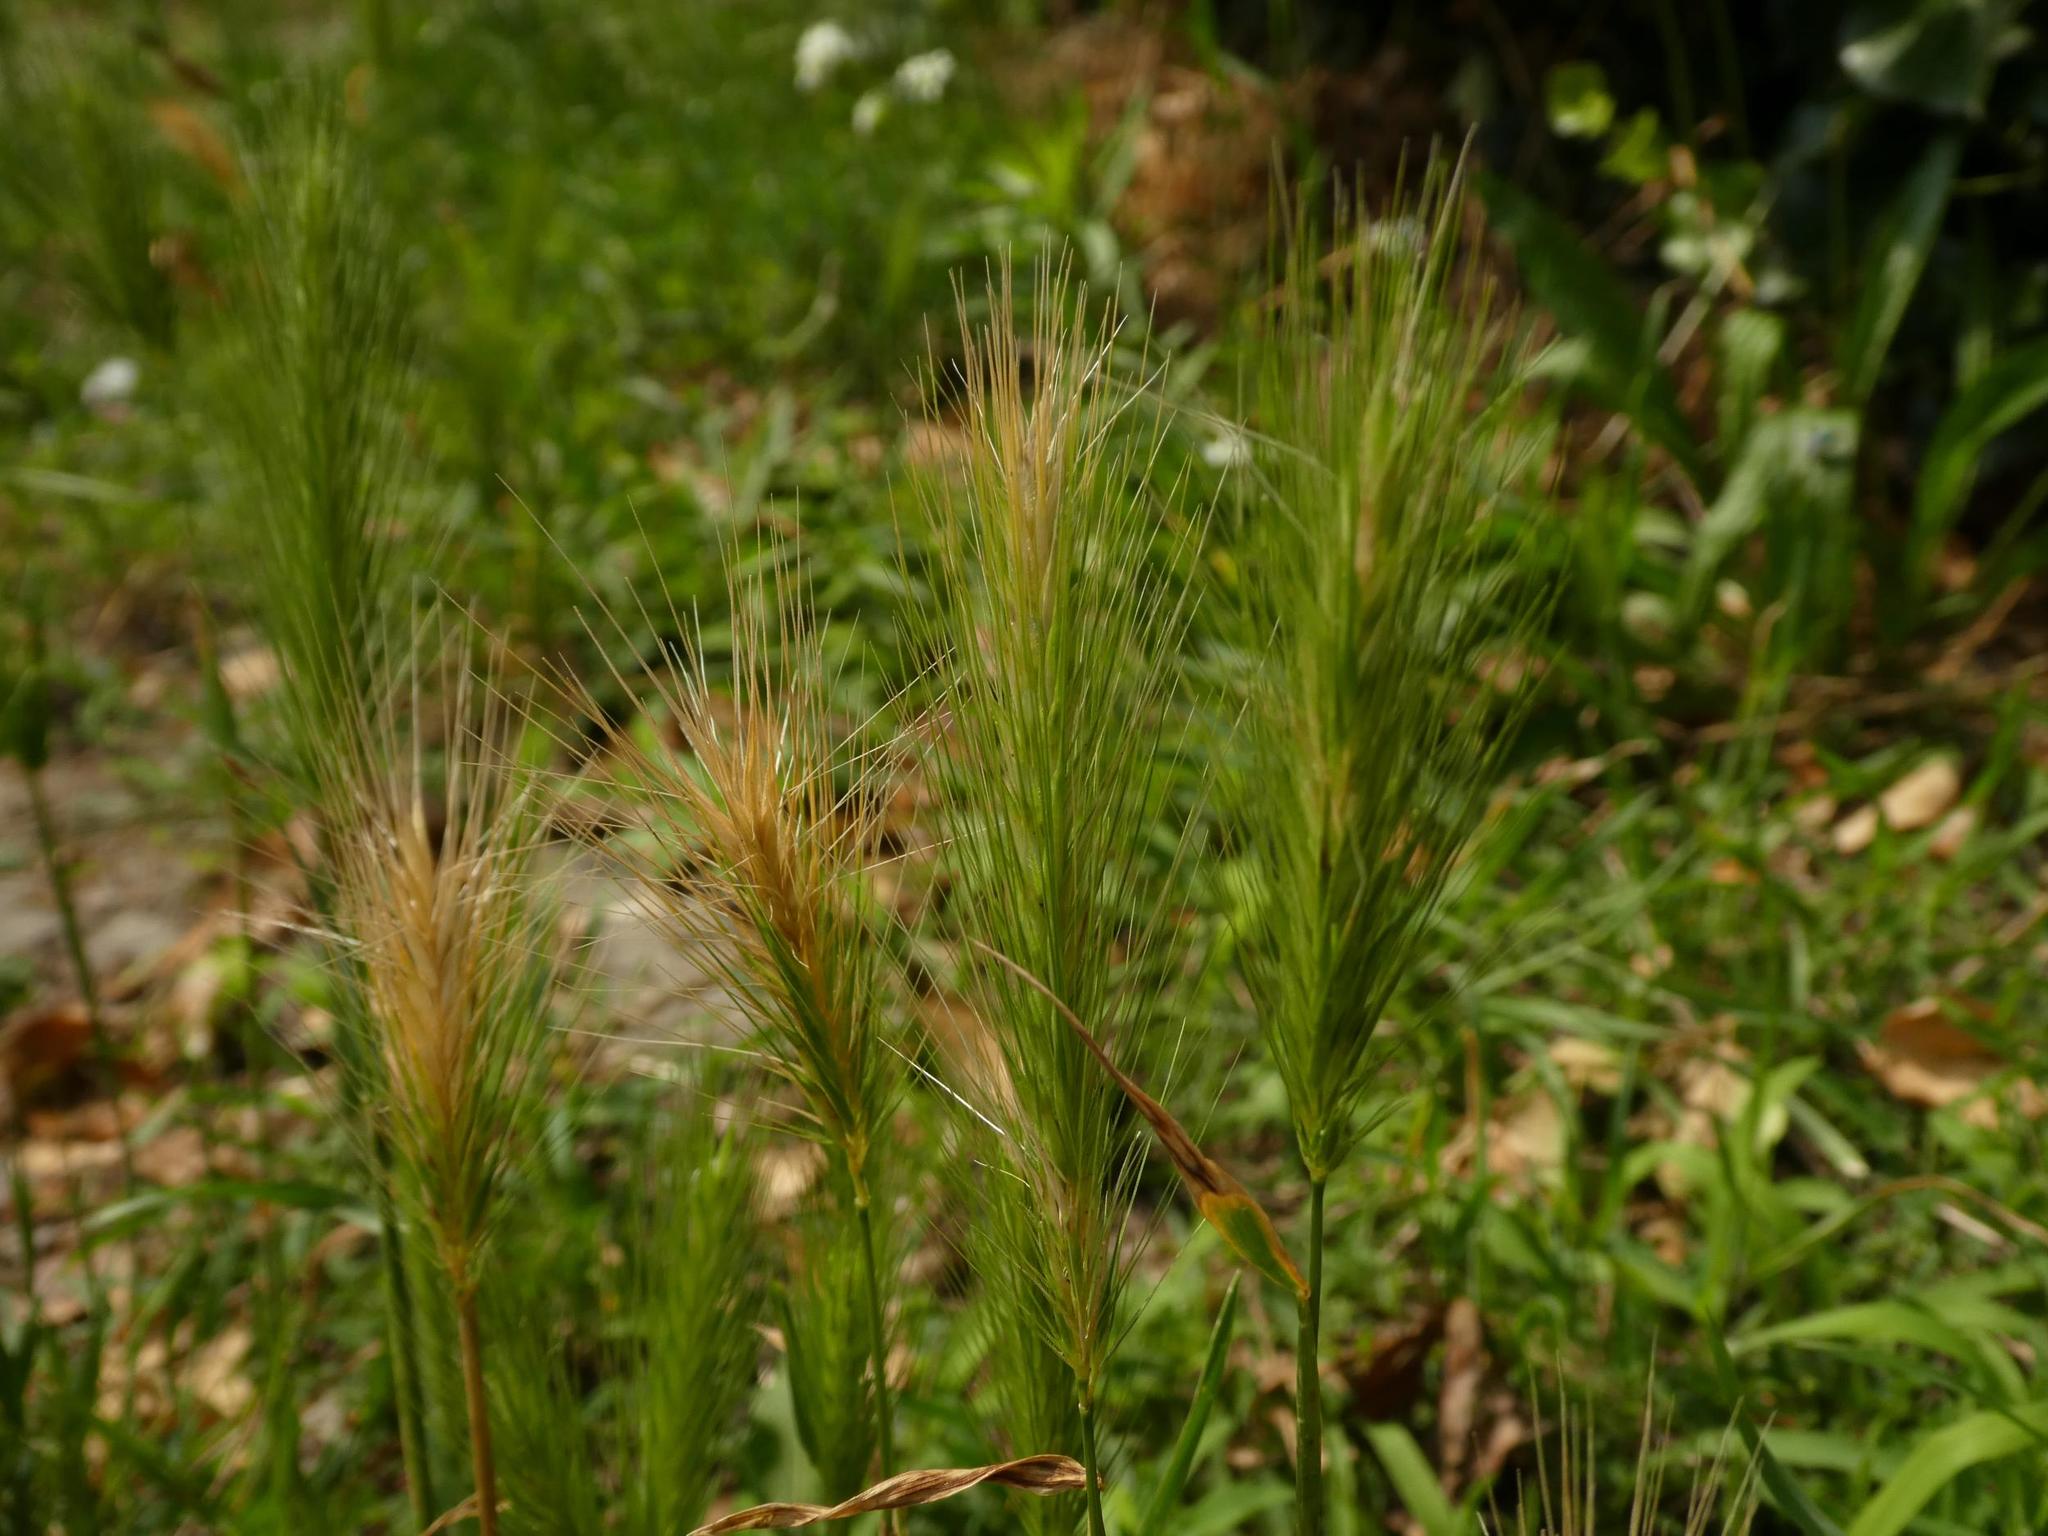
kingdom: Plantae
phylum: Tracheophyta
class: Liliopsida
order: Poales
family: Poaceae
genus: Hordeum
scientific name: Hordeum murinum
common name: Wall barley
